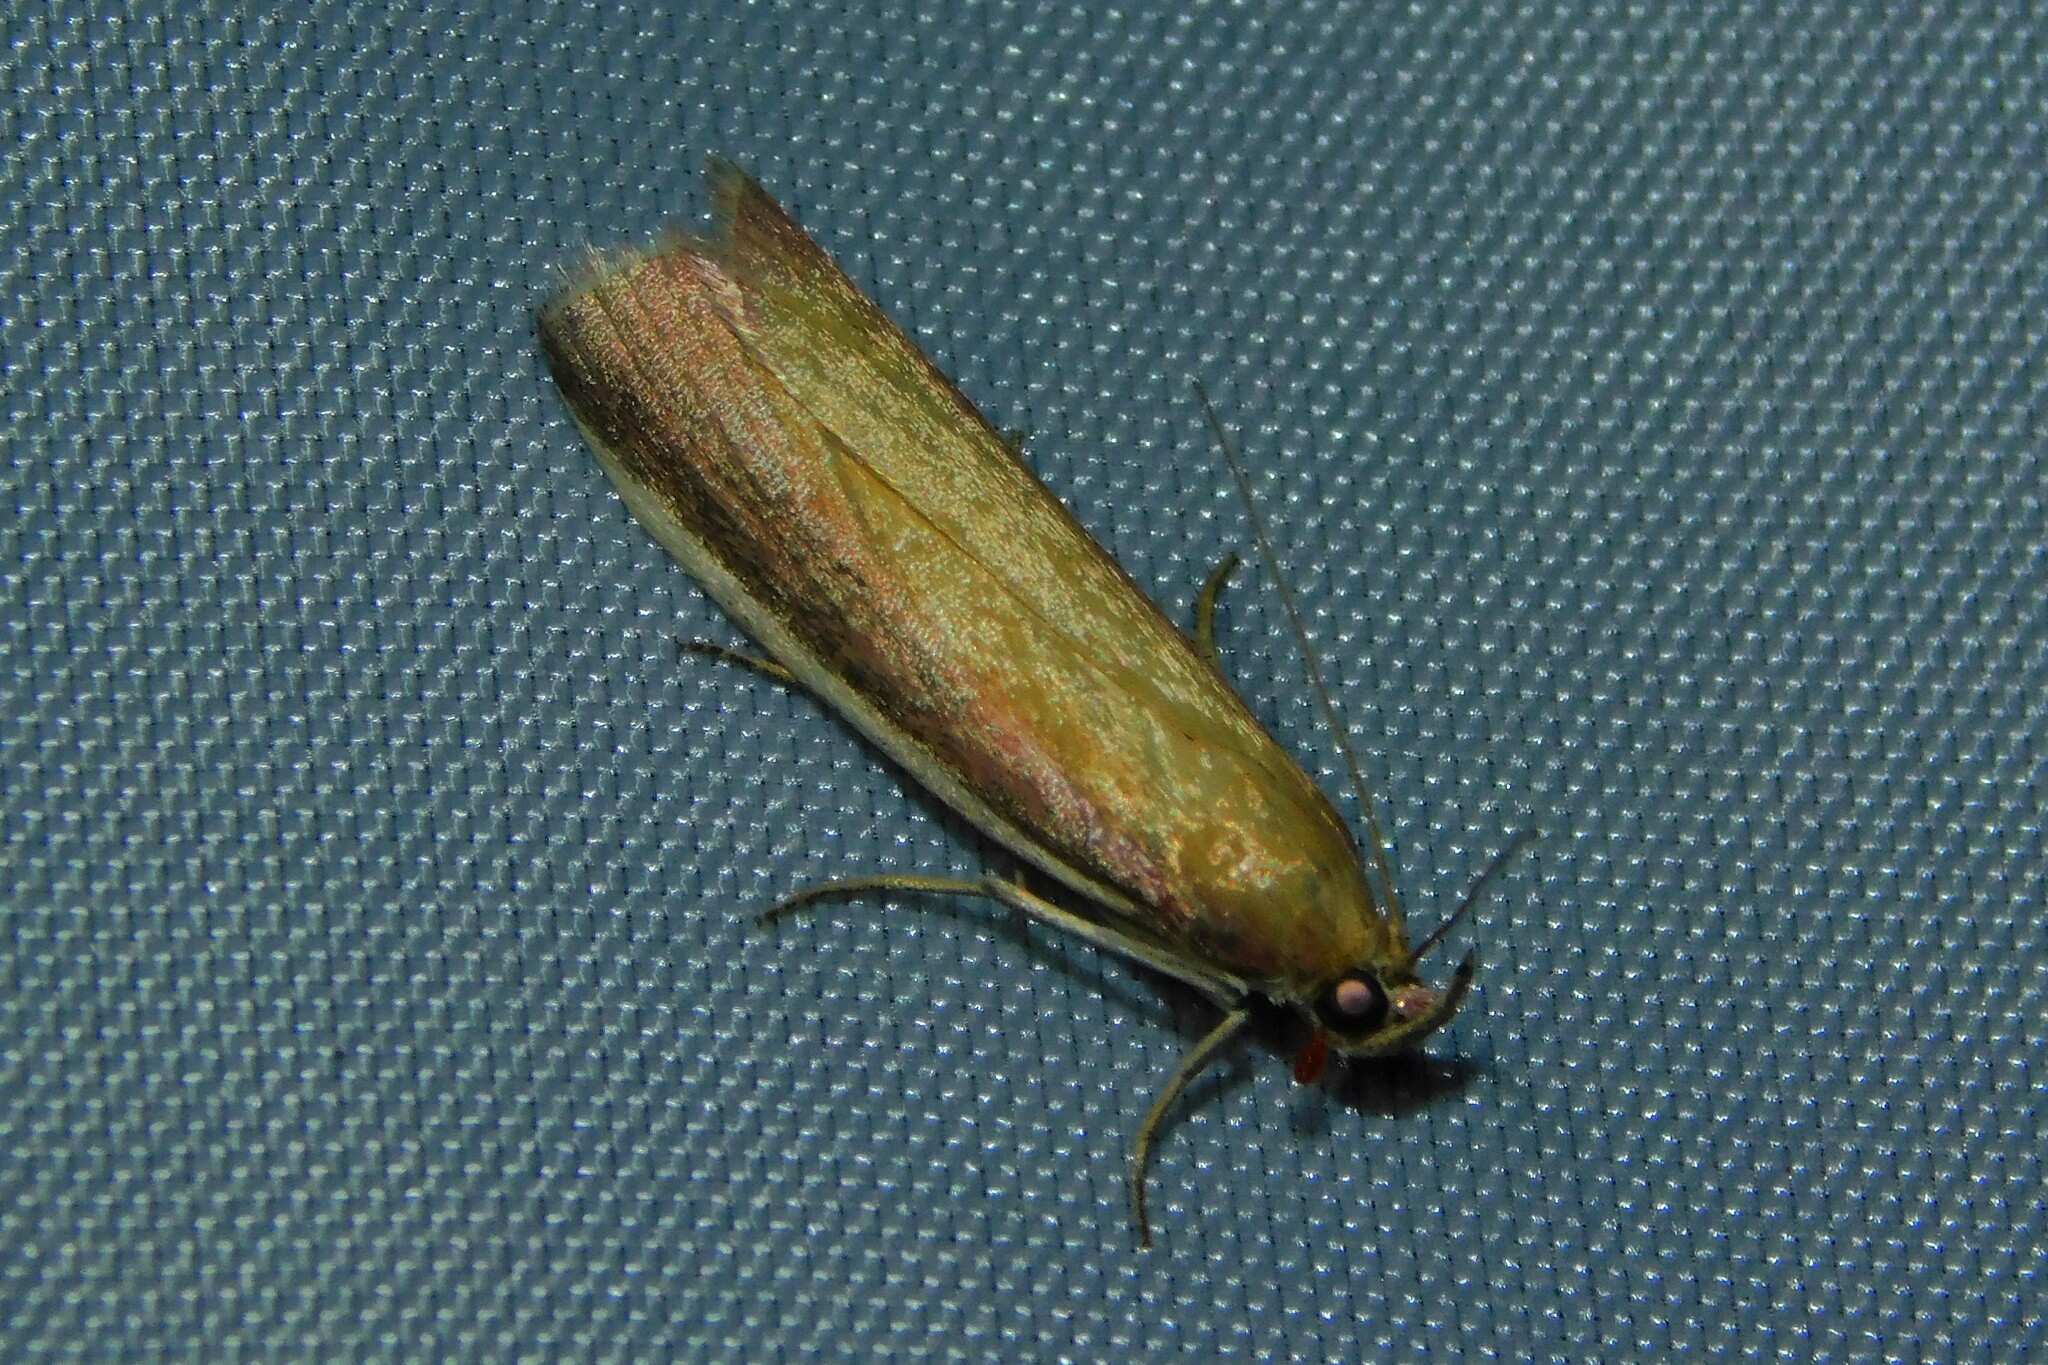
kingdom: Animalia
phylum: Arthropoda
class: Insecta
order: Lepidoptera
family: Pyralidae
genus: Oncocera
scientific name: Oncocera semirubella
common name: Rosy-striped knot-horn
